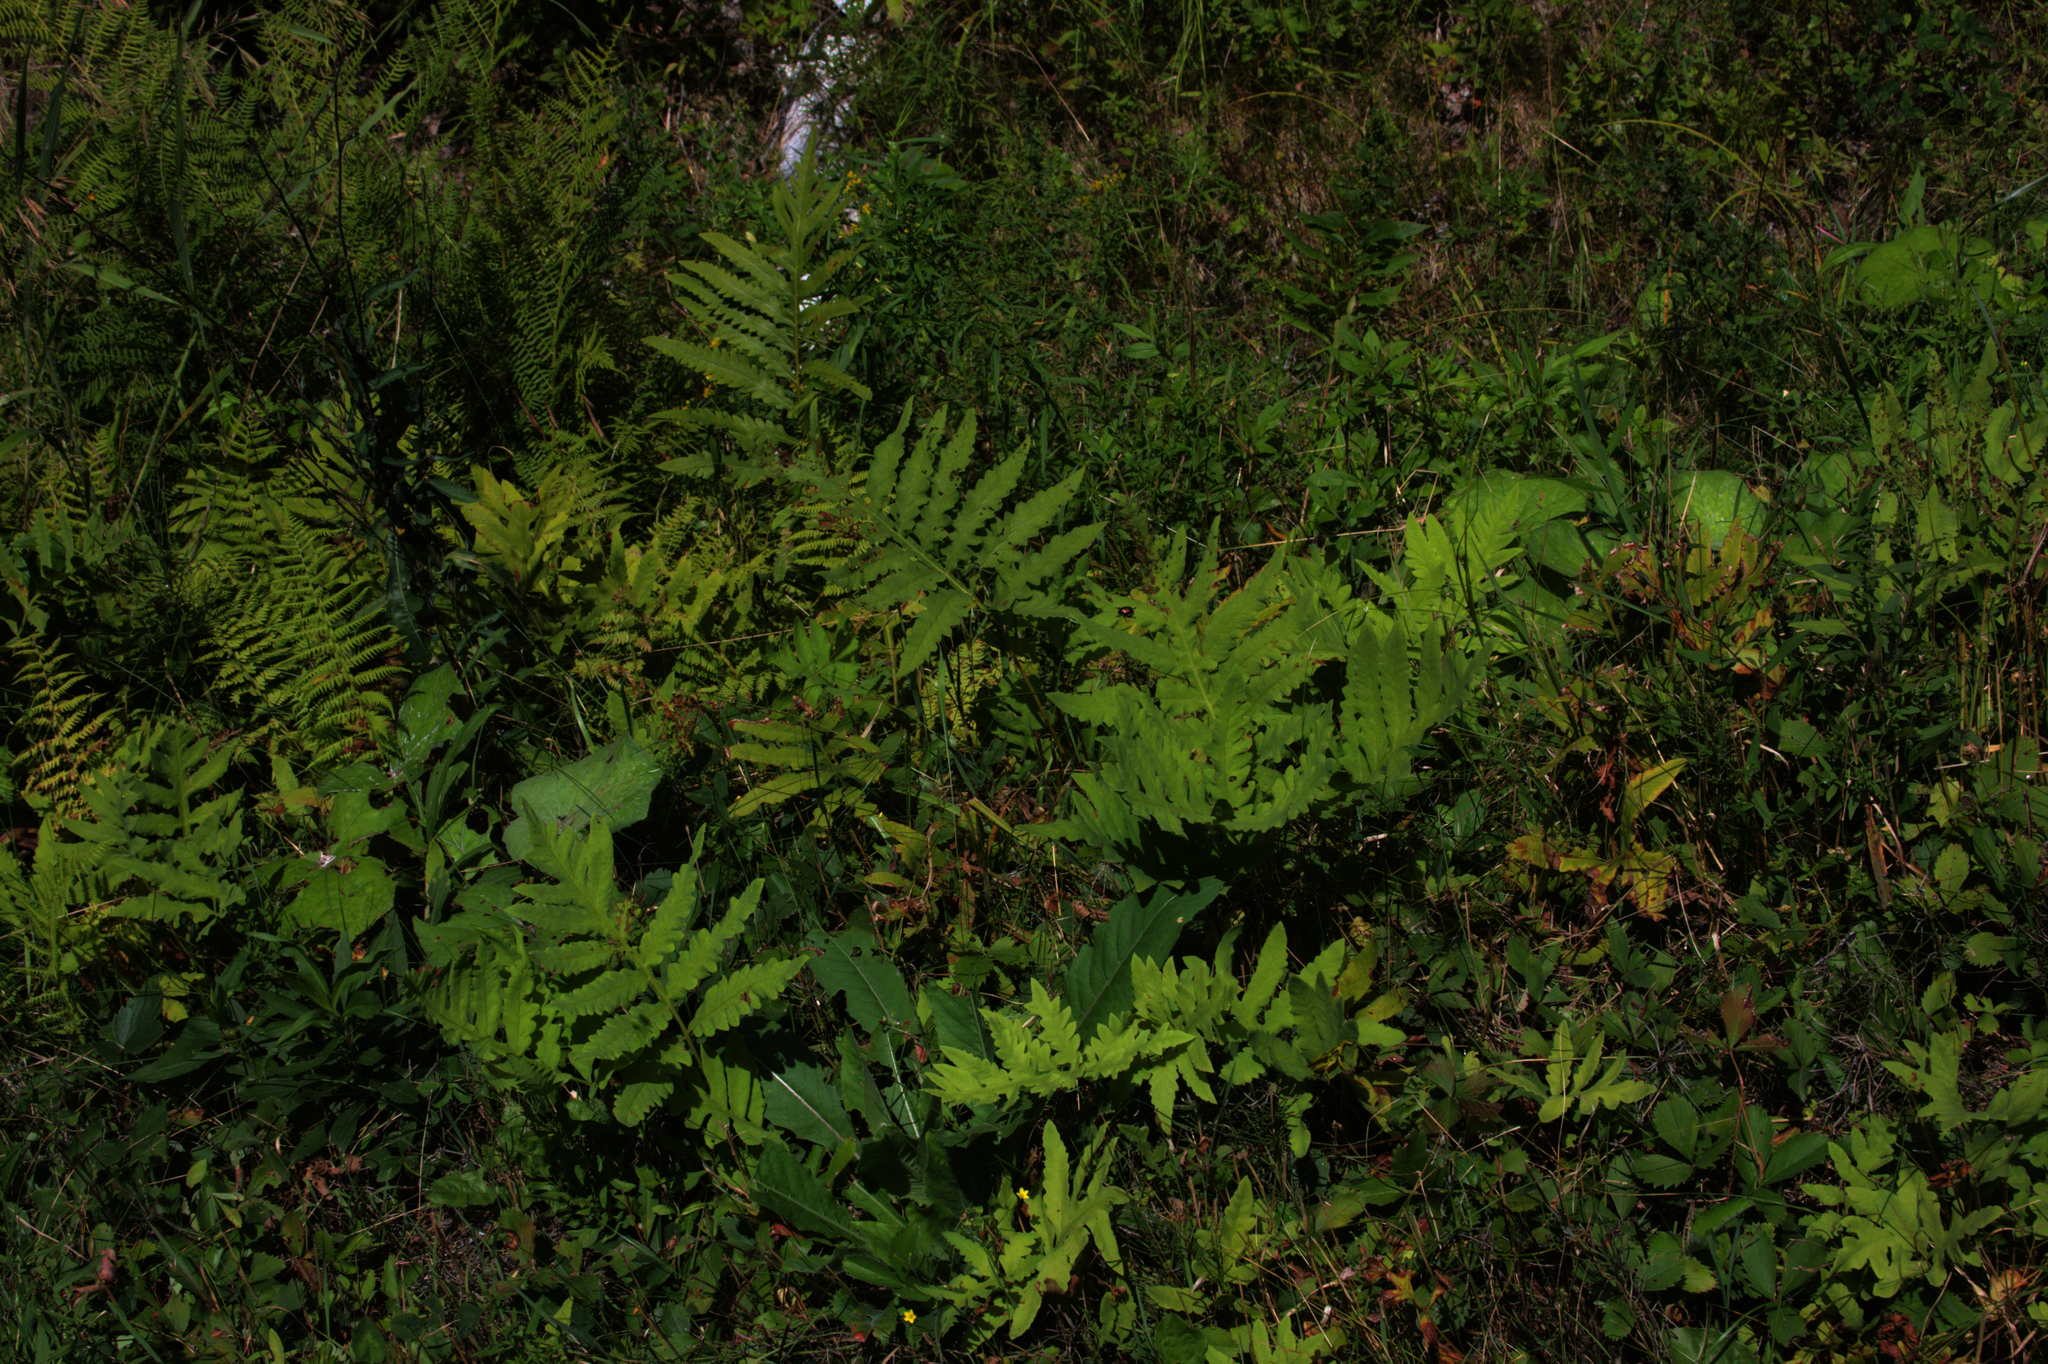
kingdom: Plantae
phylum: Tracheophyta
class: Polypodiopsida
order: Polypodiales
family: Onocleaceae
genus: Onoclea
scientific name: Onoclea sensibilis
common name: Sensitive fern
